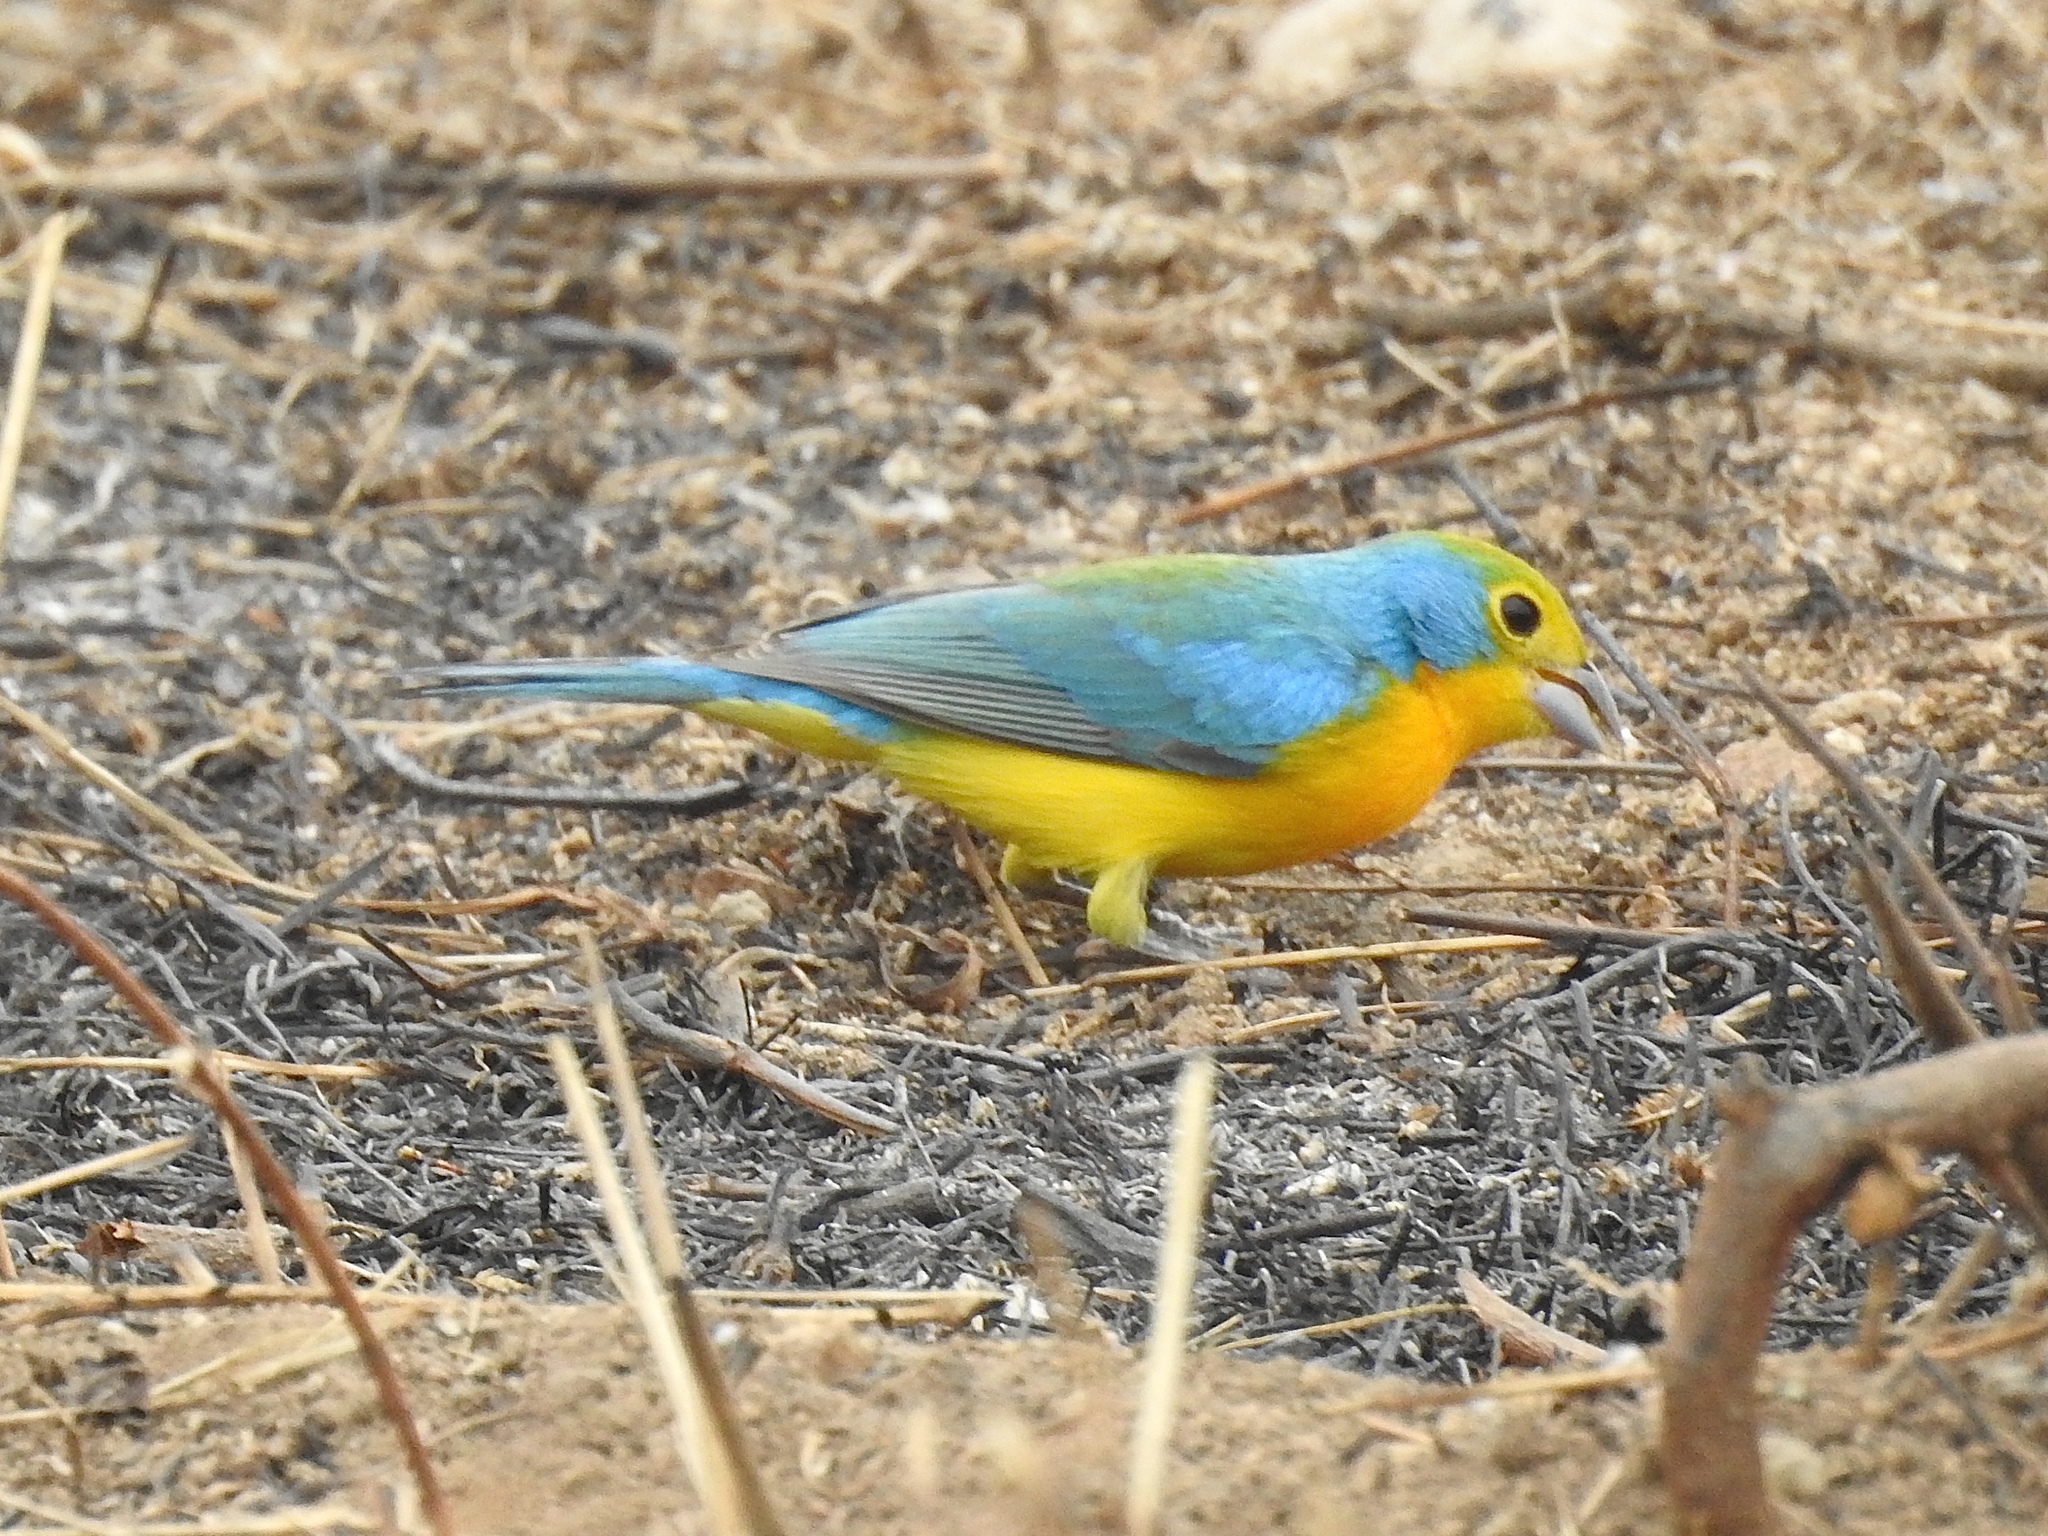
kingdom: Animalia
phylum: Chordata
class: Aves
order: Passeriformes
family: Cardinalidae
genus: Passerina
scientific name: Passerina leclancherii
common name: Orange-breasted bunting
